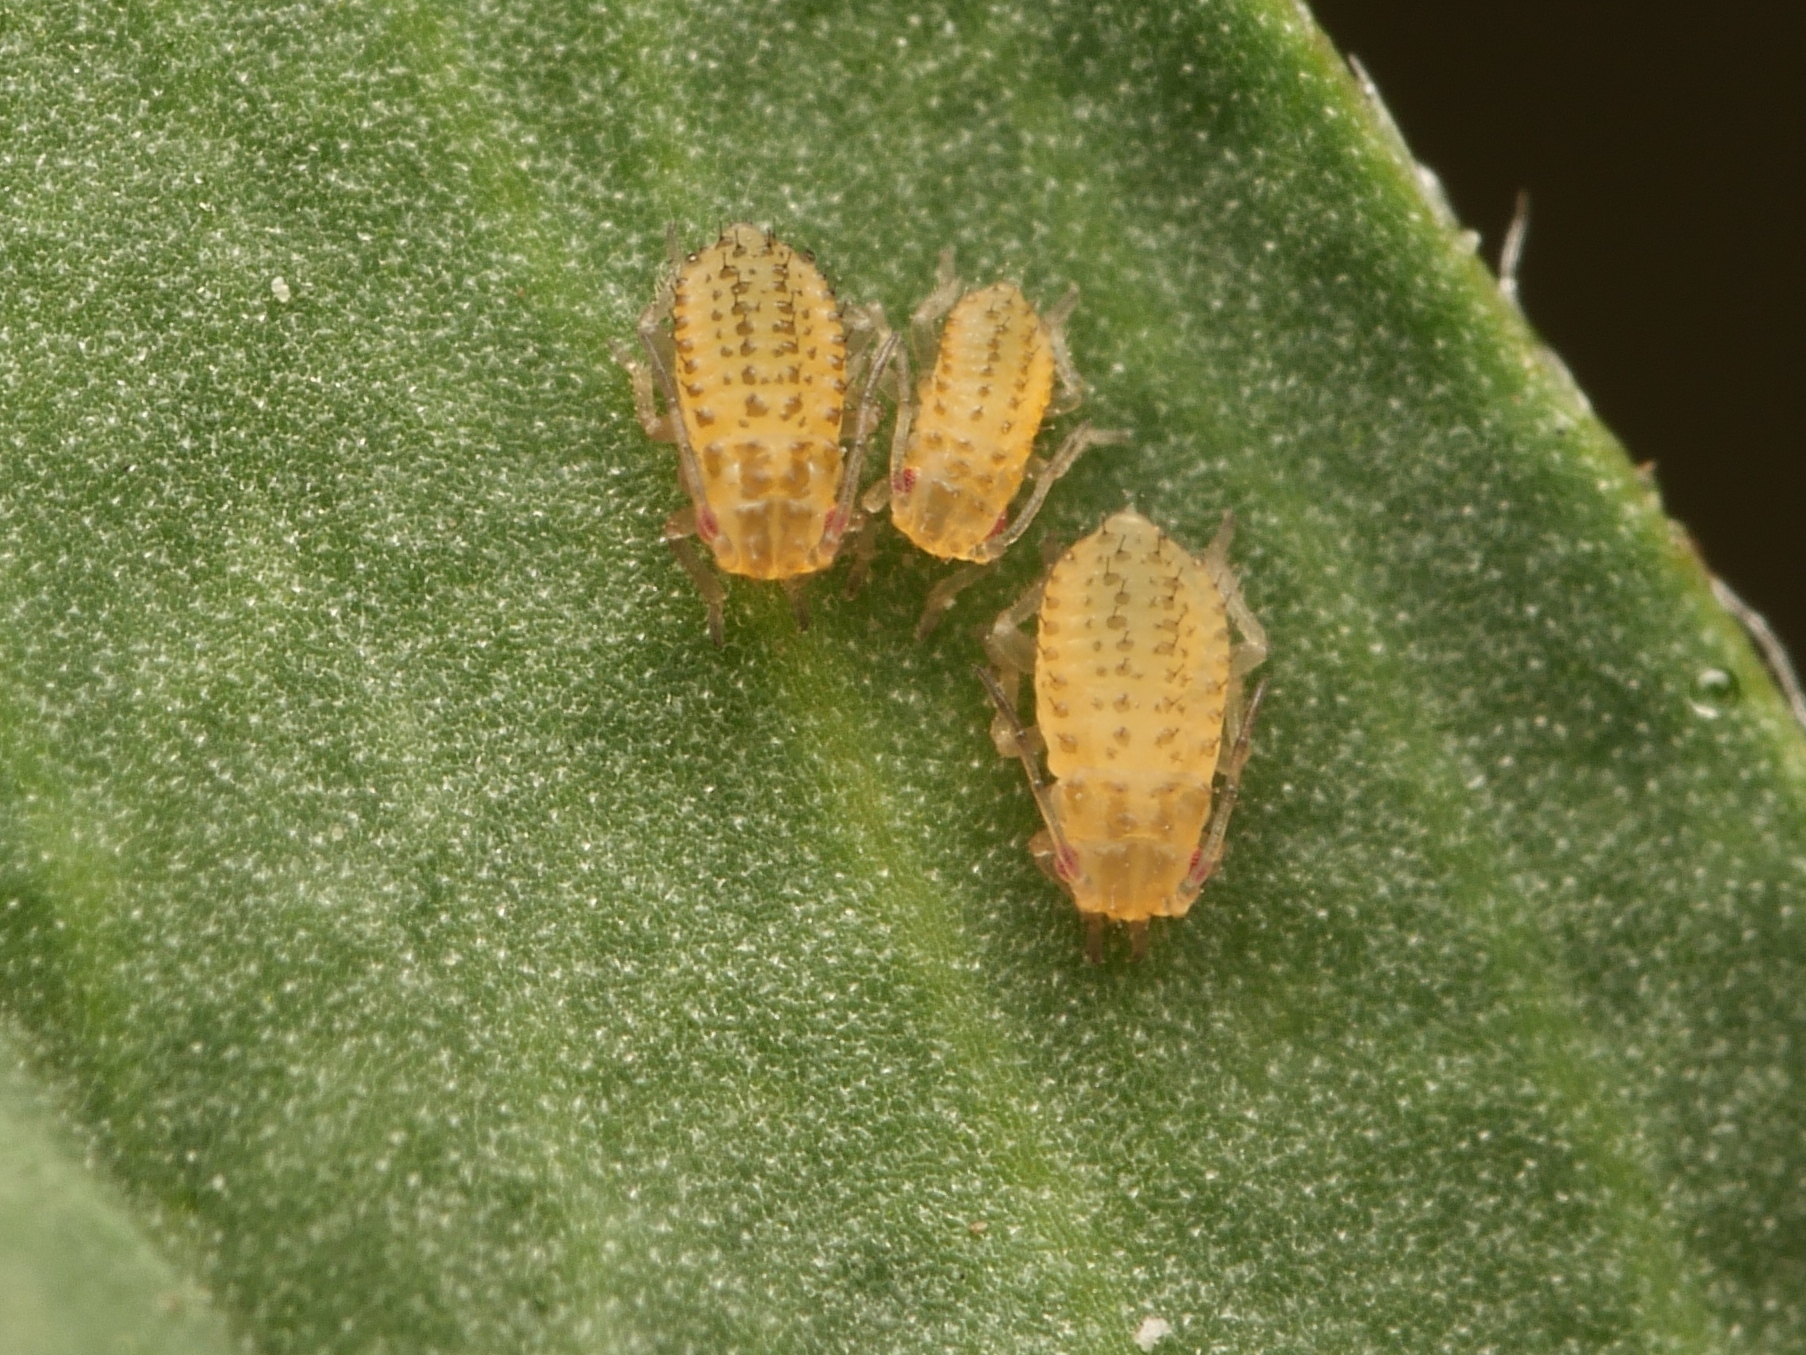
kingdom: Animalia
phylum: Arthropoda
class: Insecta
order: Hemiptera
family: Aphididae
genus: Therioaphis
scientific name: Therioaphis trifolii
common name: Spotted alfalfa aphid
